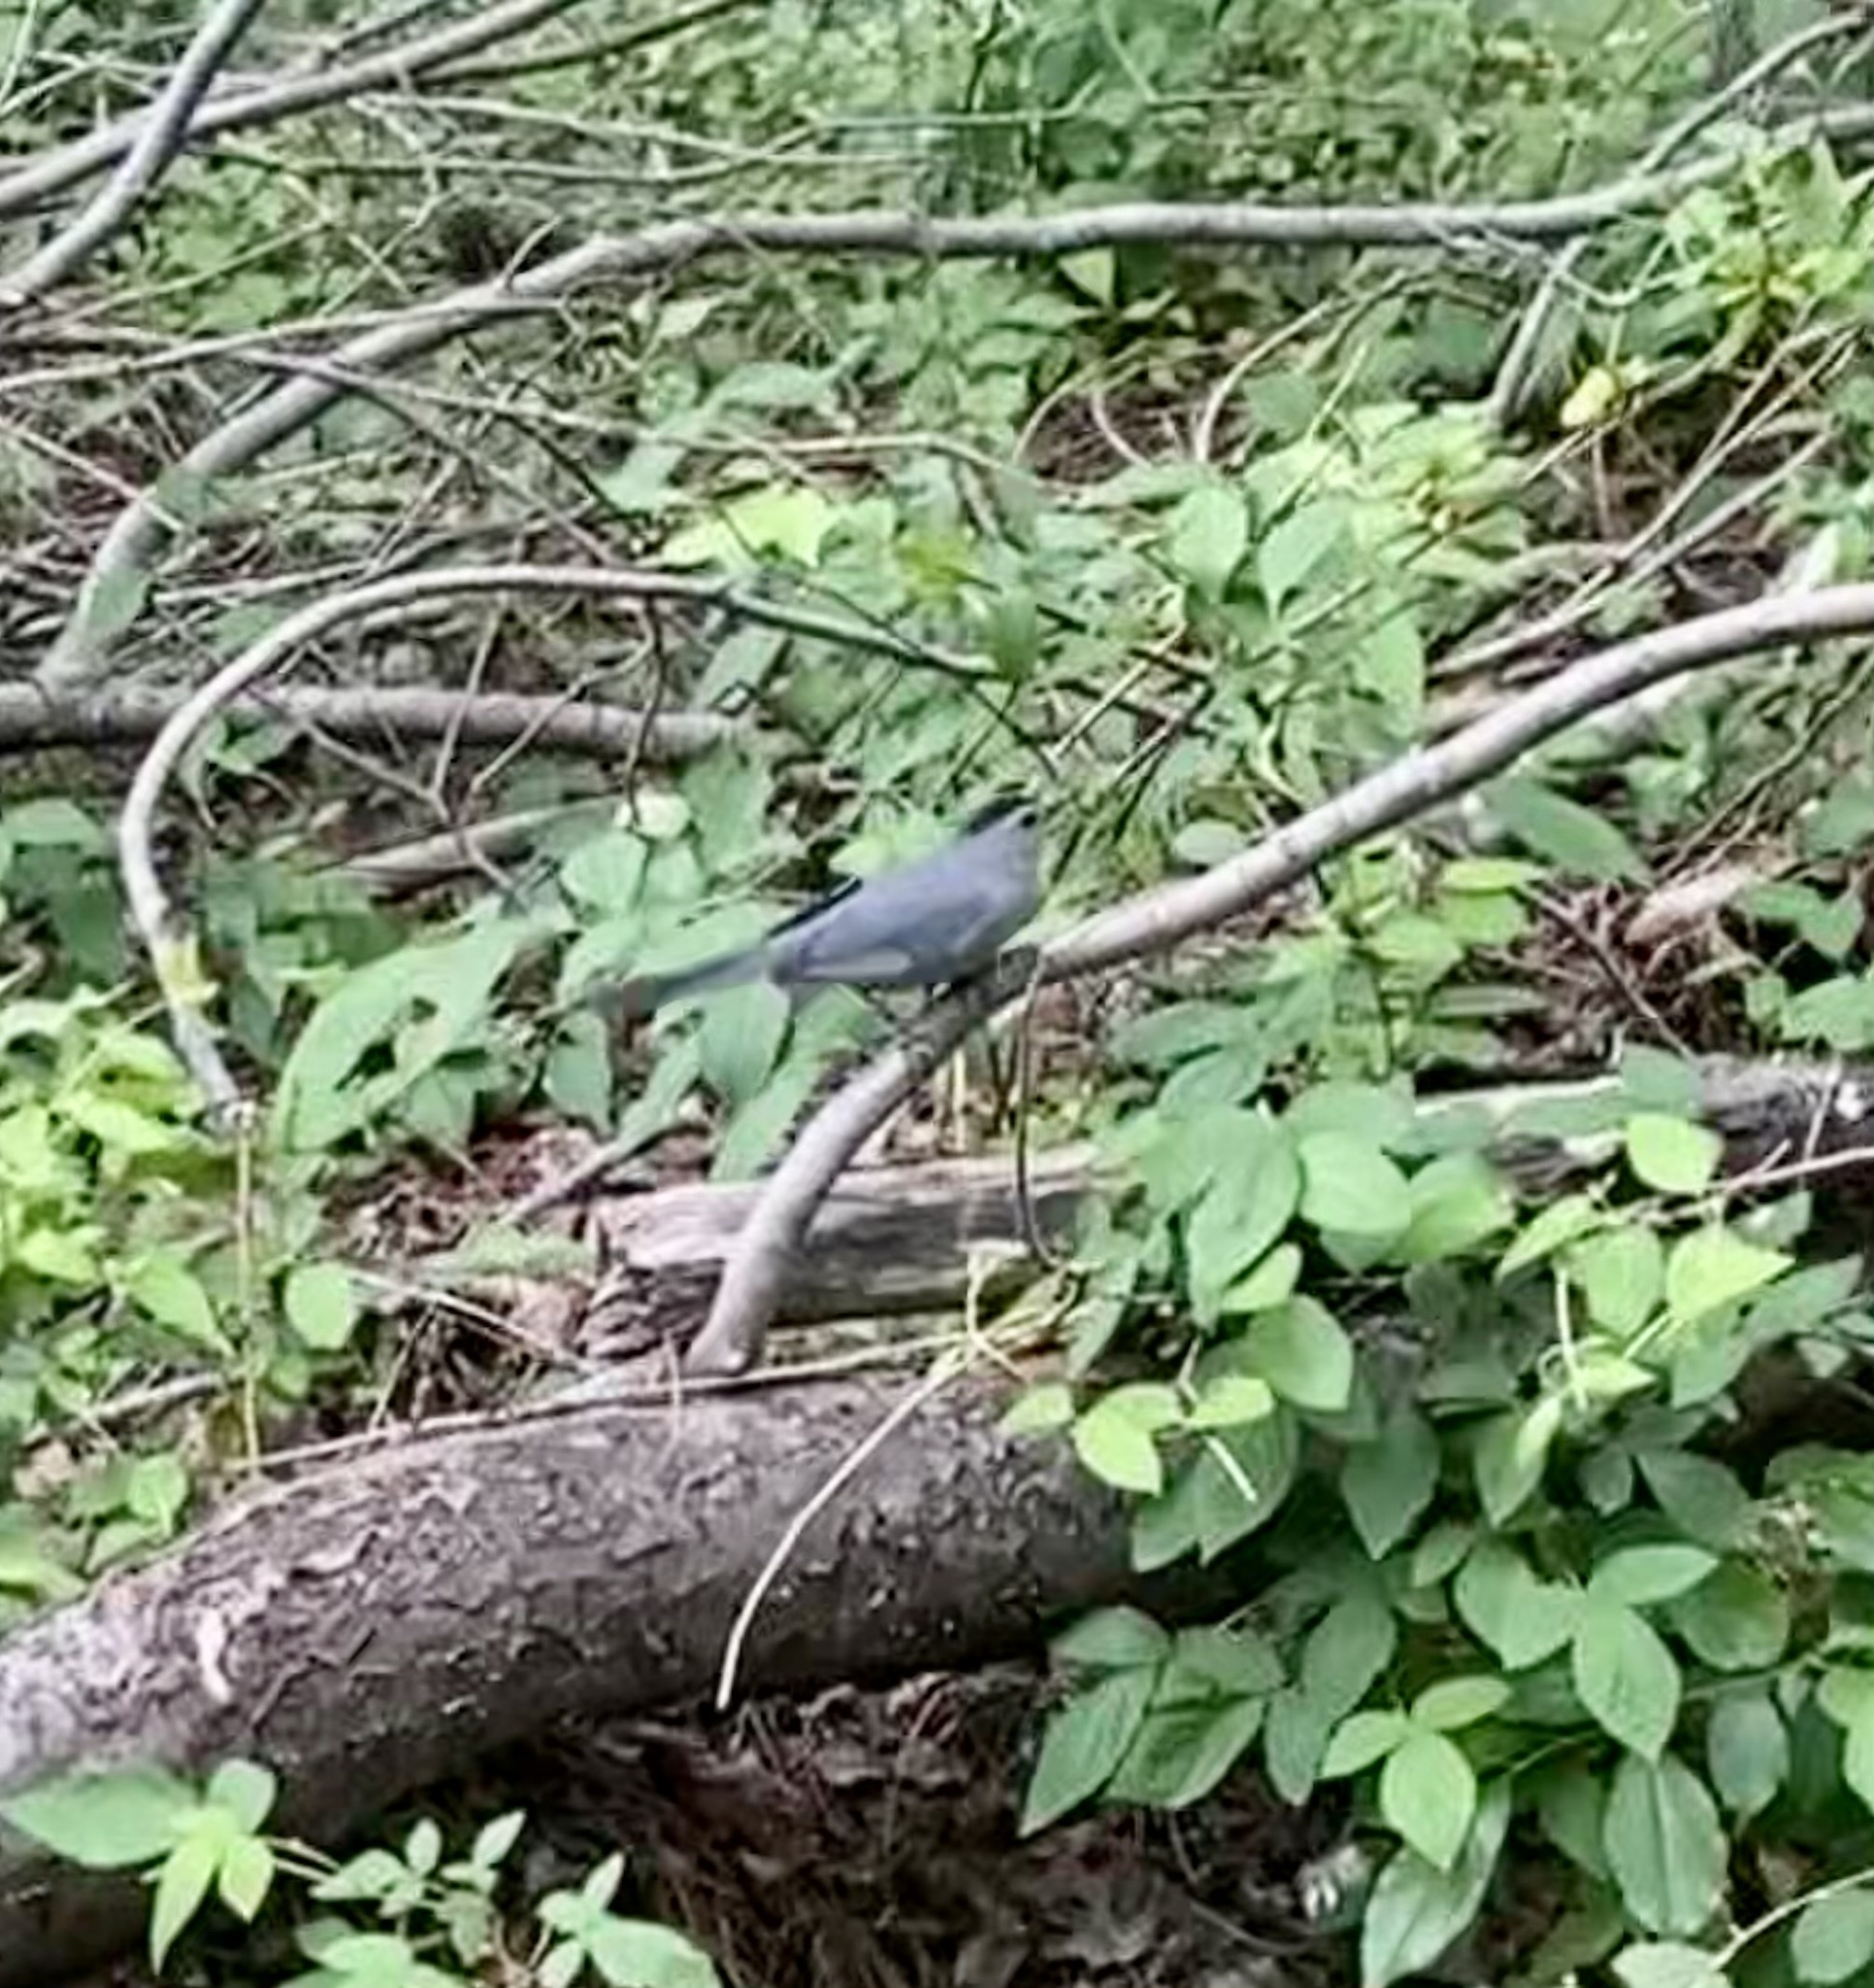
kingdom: Animalia
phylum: Chordata
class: Aves
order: Passeriformes
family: Mimidae
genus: Dumetella
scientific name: Dumetella carolinensis
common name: Gray catbird
